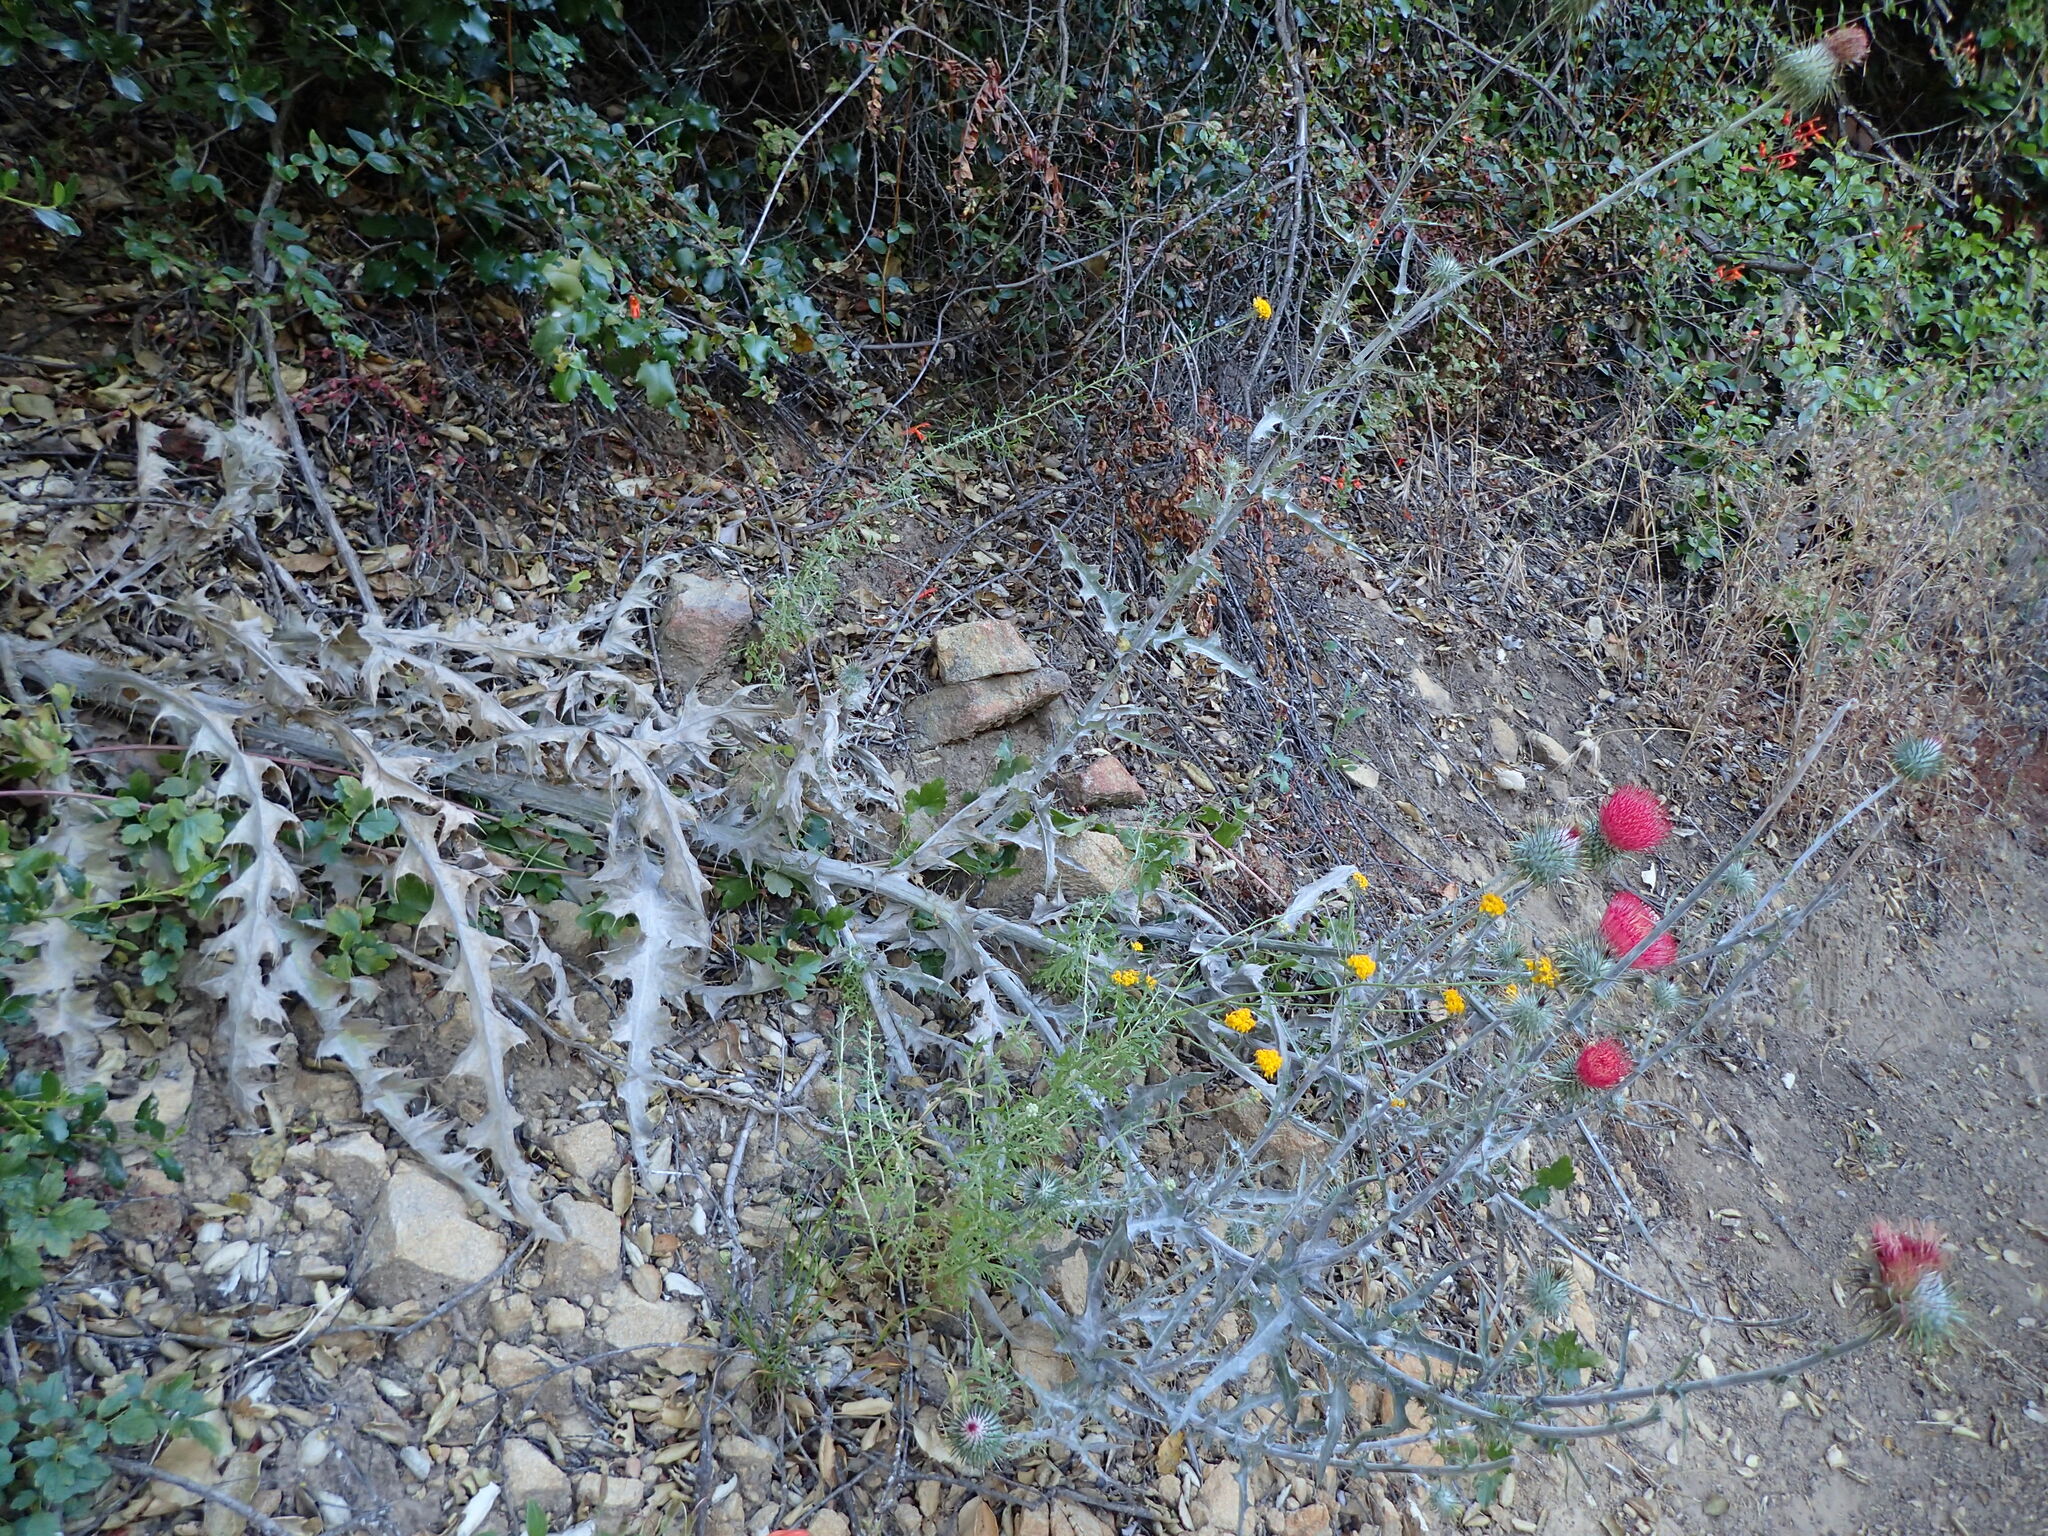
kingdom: Plantae
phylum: Tracheophyta
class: Magnoliopsida
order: Asterales
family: Asteraceae
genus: Cirsium
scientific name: Cirsium occidentale
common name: Western thistle
